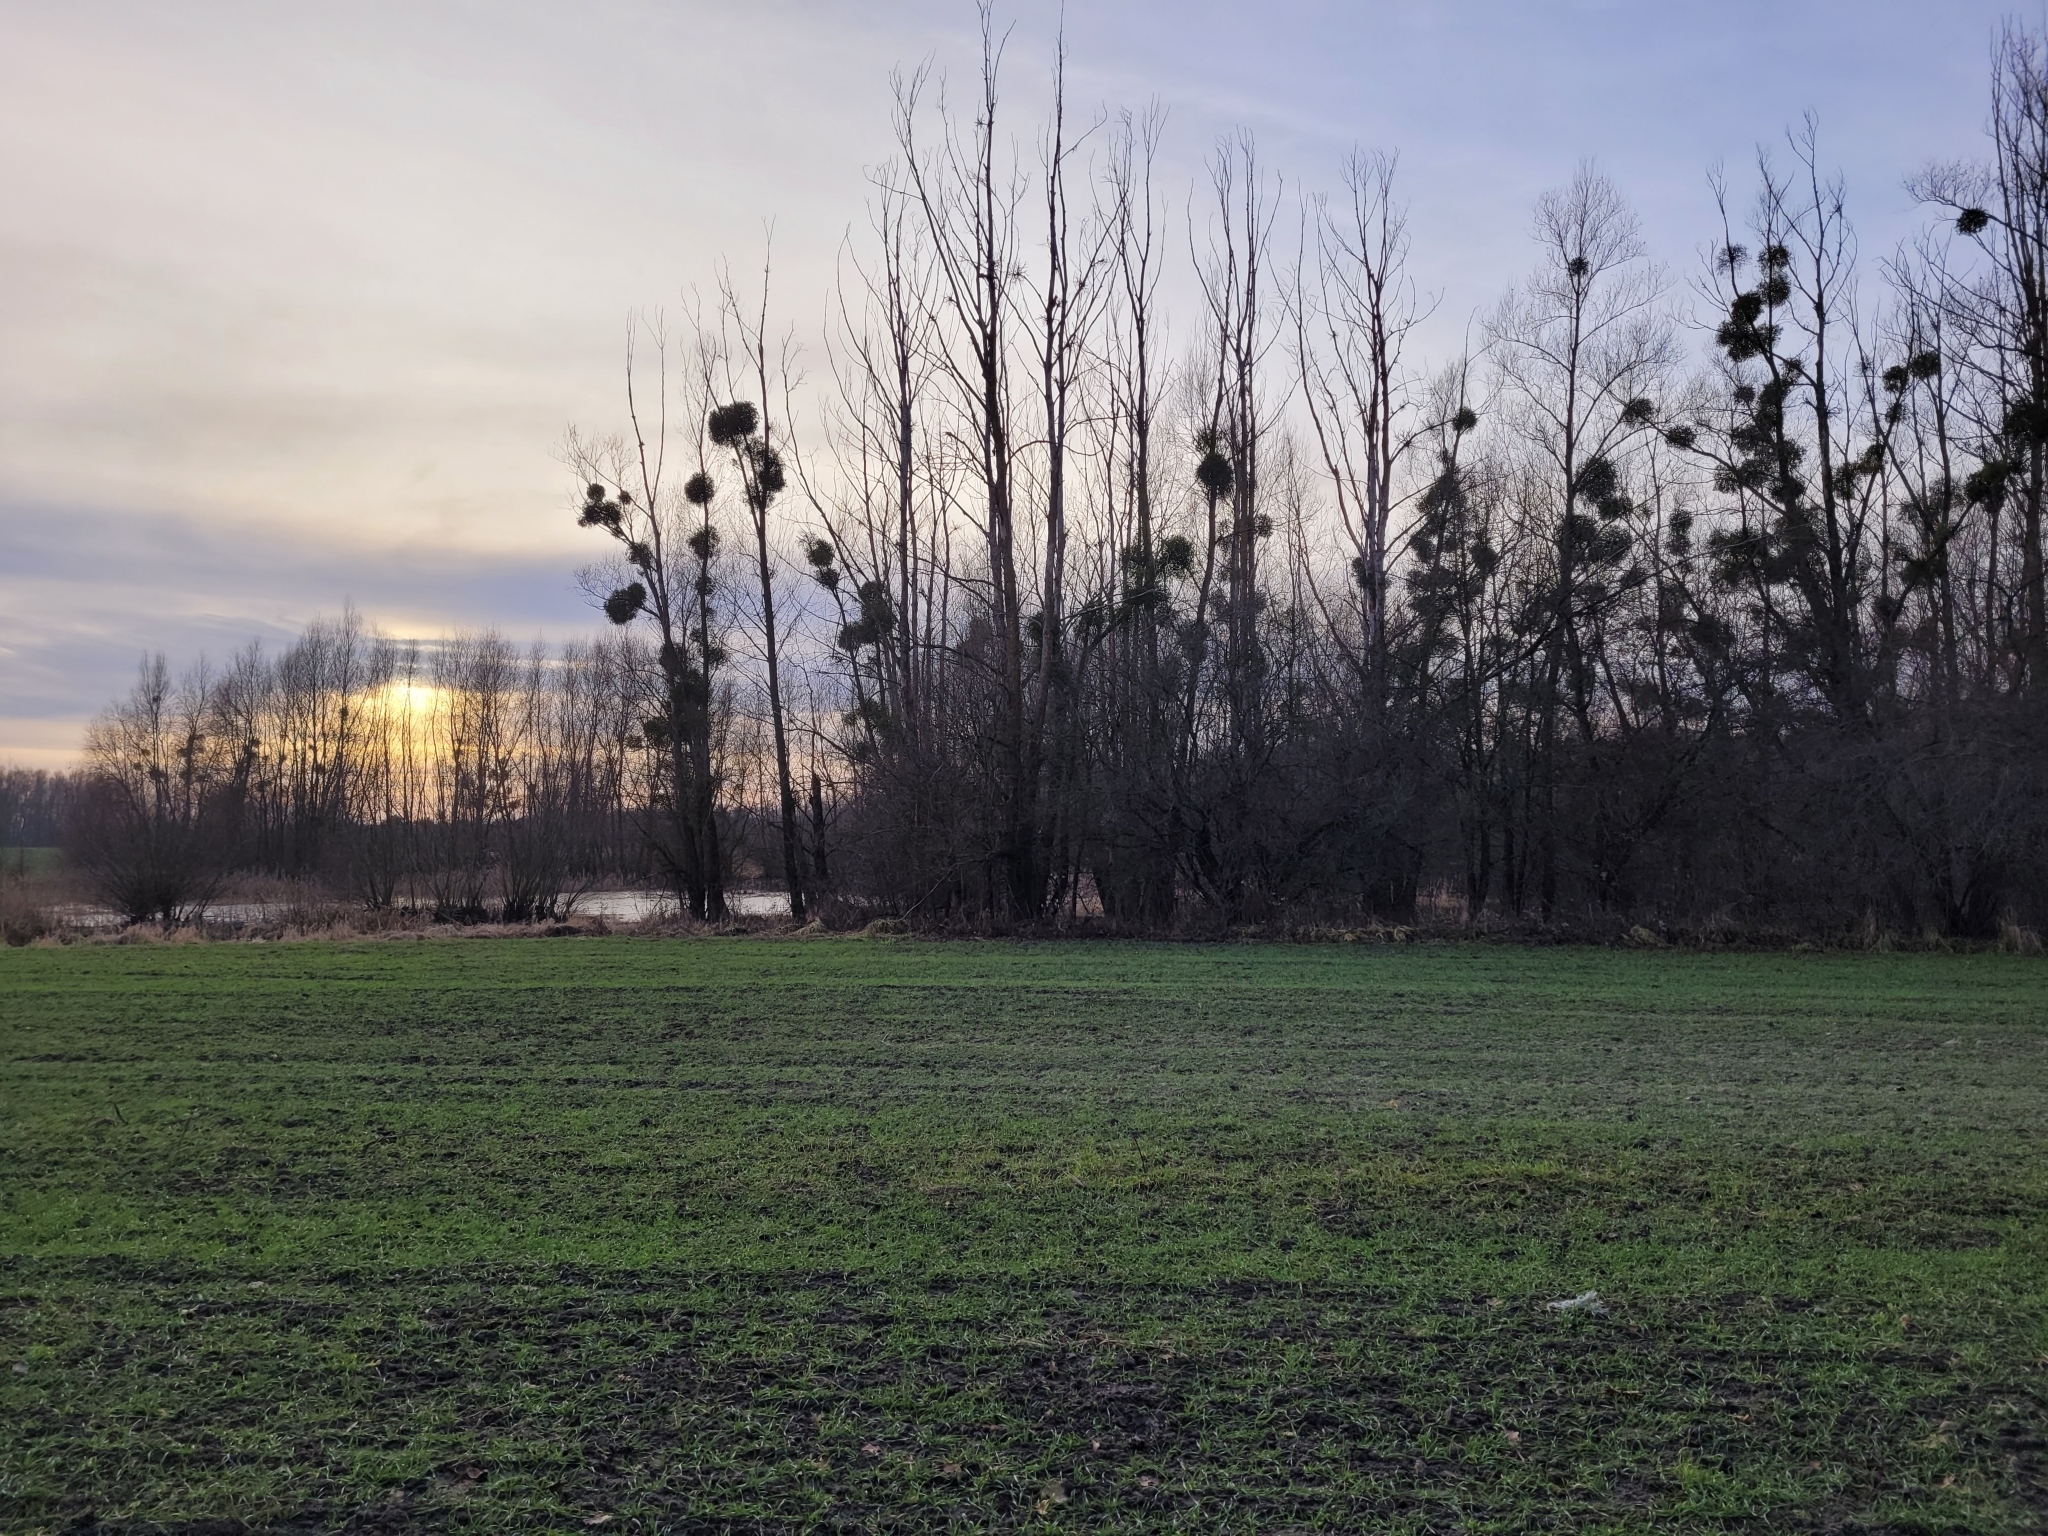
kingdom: Plantae
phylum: Tracheophyta
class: Magnoliopsida
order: Santalales
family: Viscaceae
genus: Viscum
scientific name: Viscum album
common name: Mistletoe
